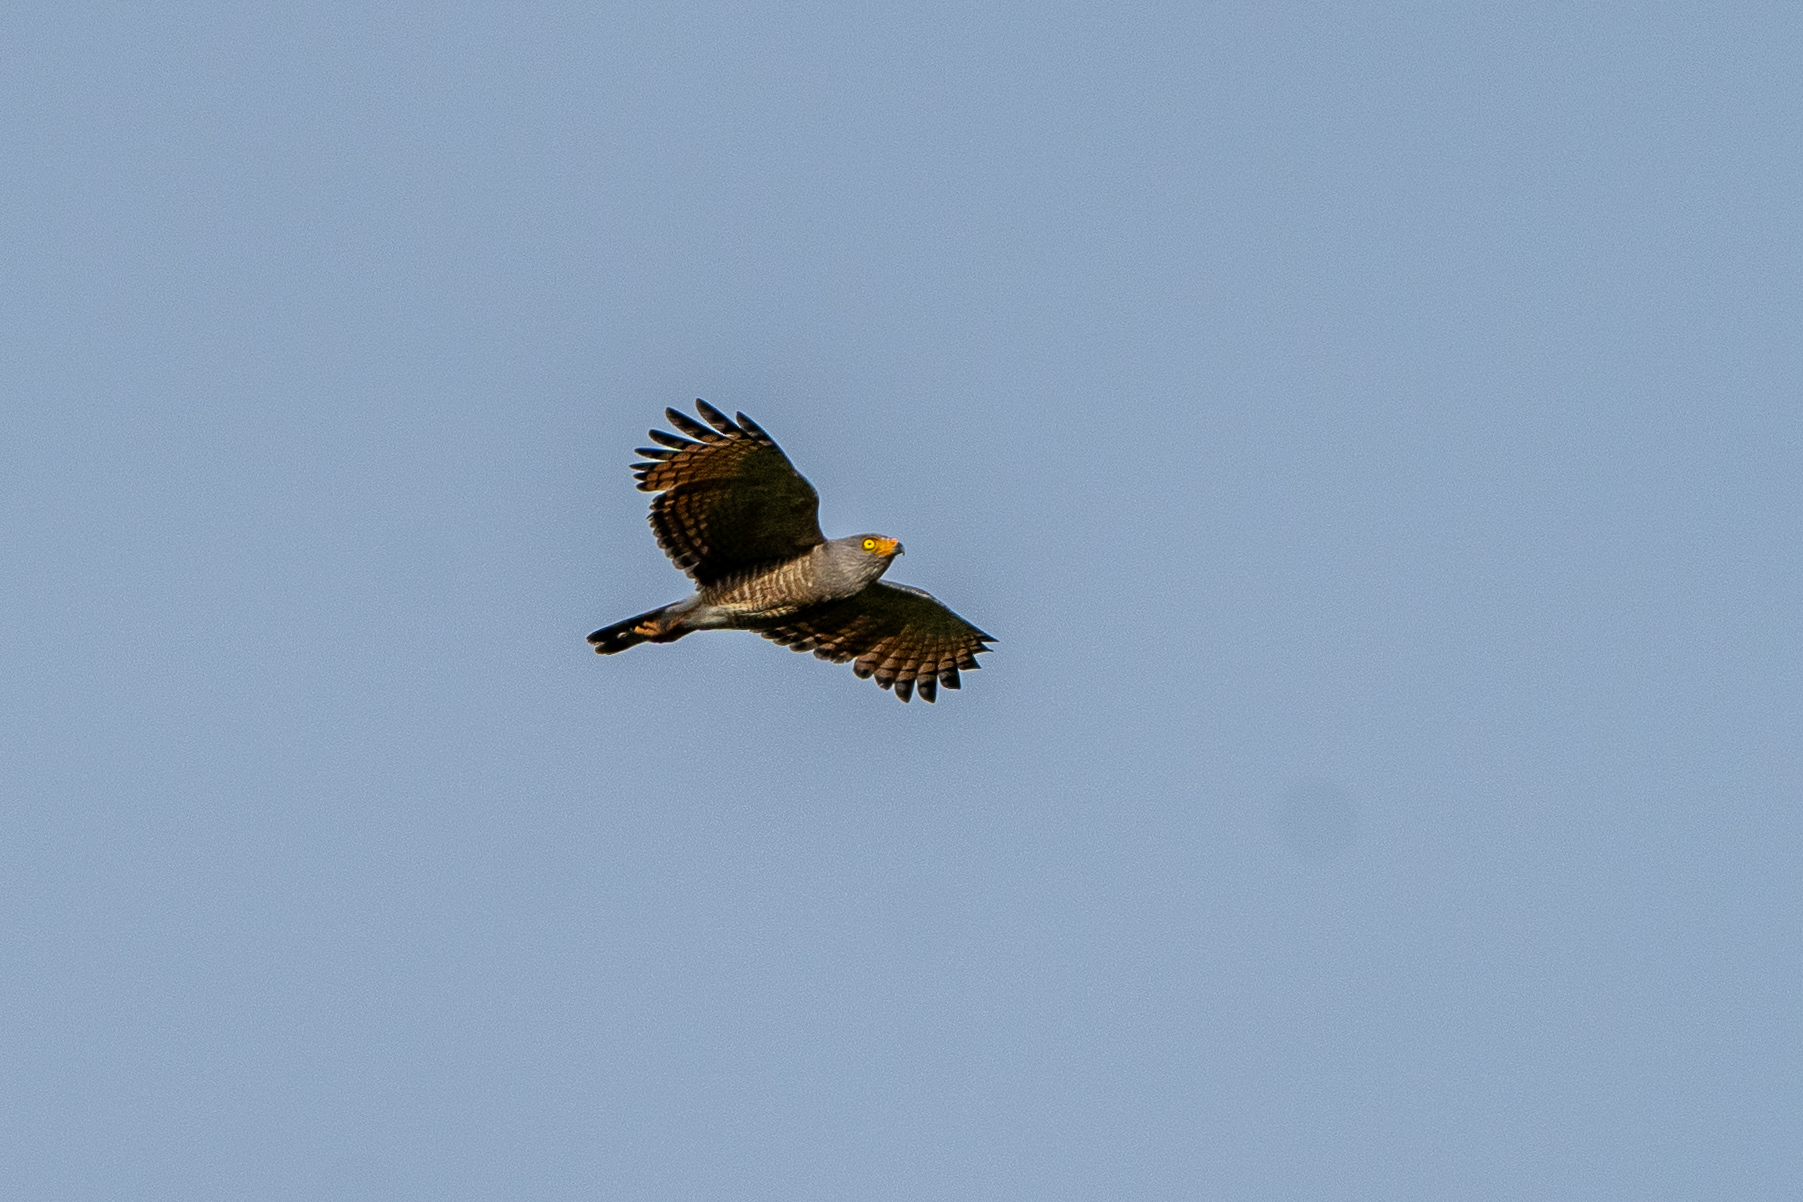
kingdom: Animalia
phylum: Chordata
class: Aves
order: Accipitriformes
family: Accipitridae
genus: Rupornis
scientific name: Rupornis magnirostris
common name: Roadside hawk
